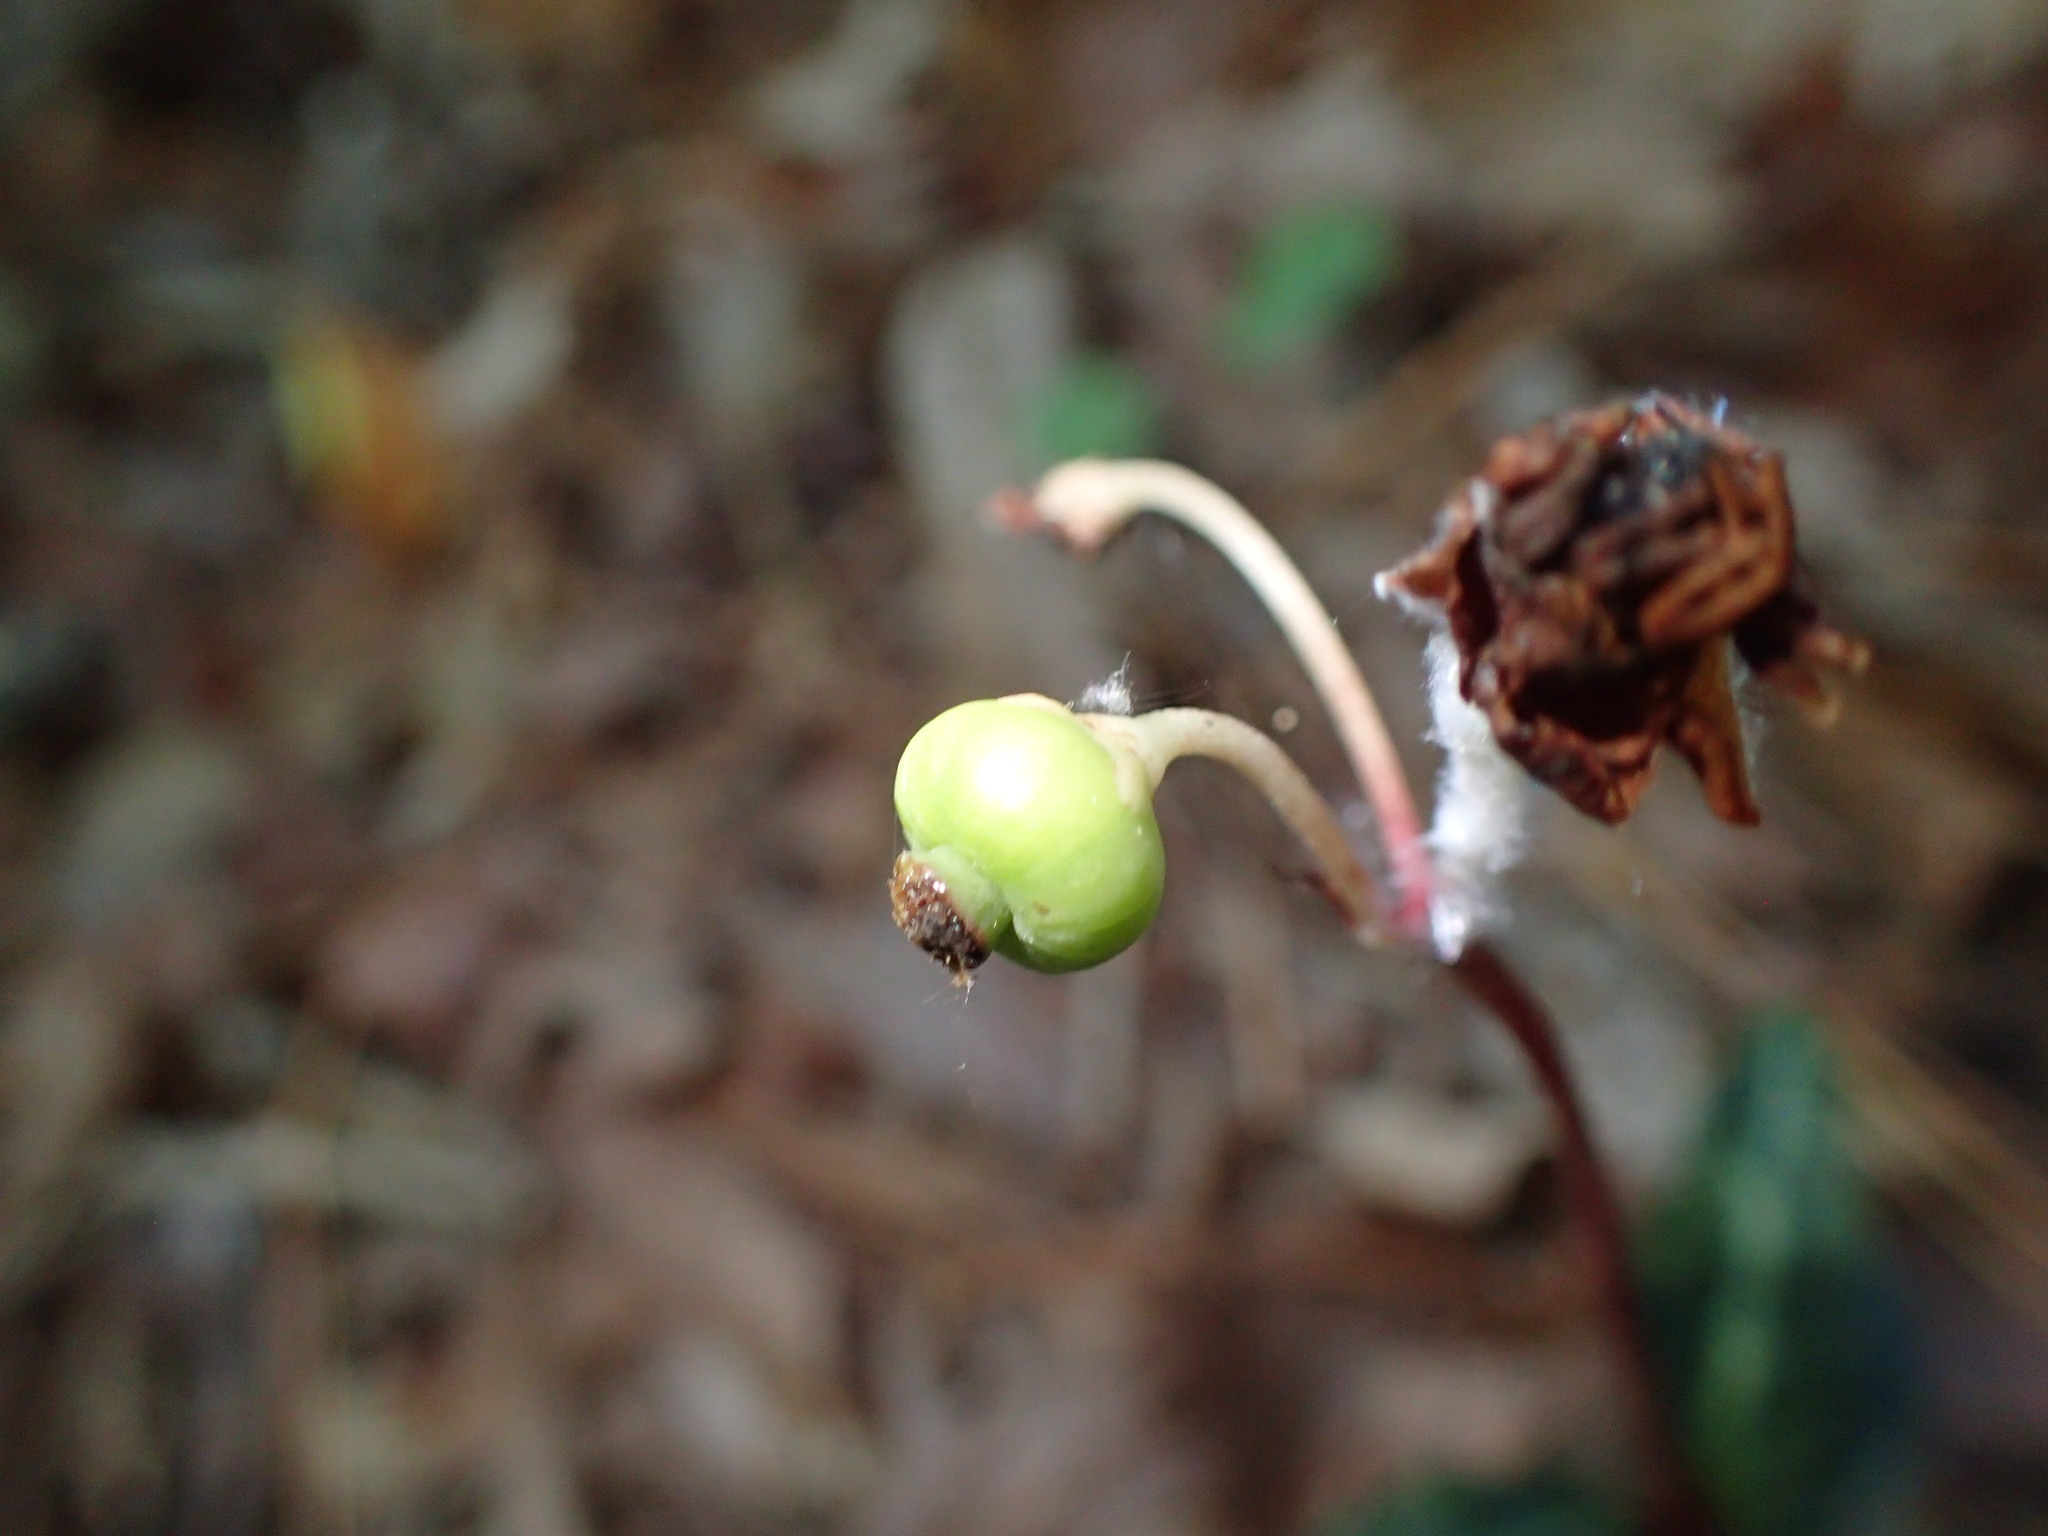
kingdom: Plantae
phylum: Tracheophyta
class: Magnoliopsida
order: Ericales
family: Ericaceae
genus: Chimaphila
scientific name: Chimaphila maculata
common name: Spotted pipsissewa
